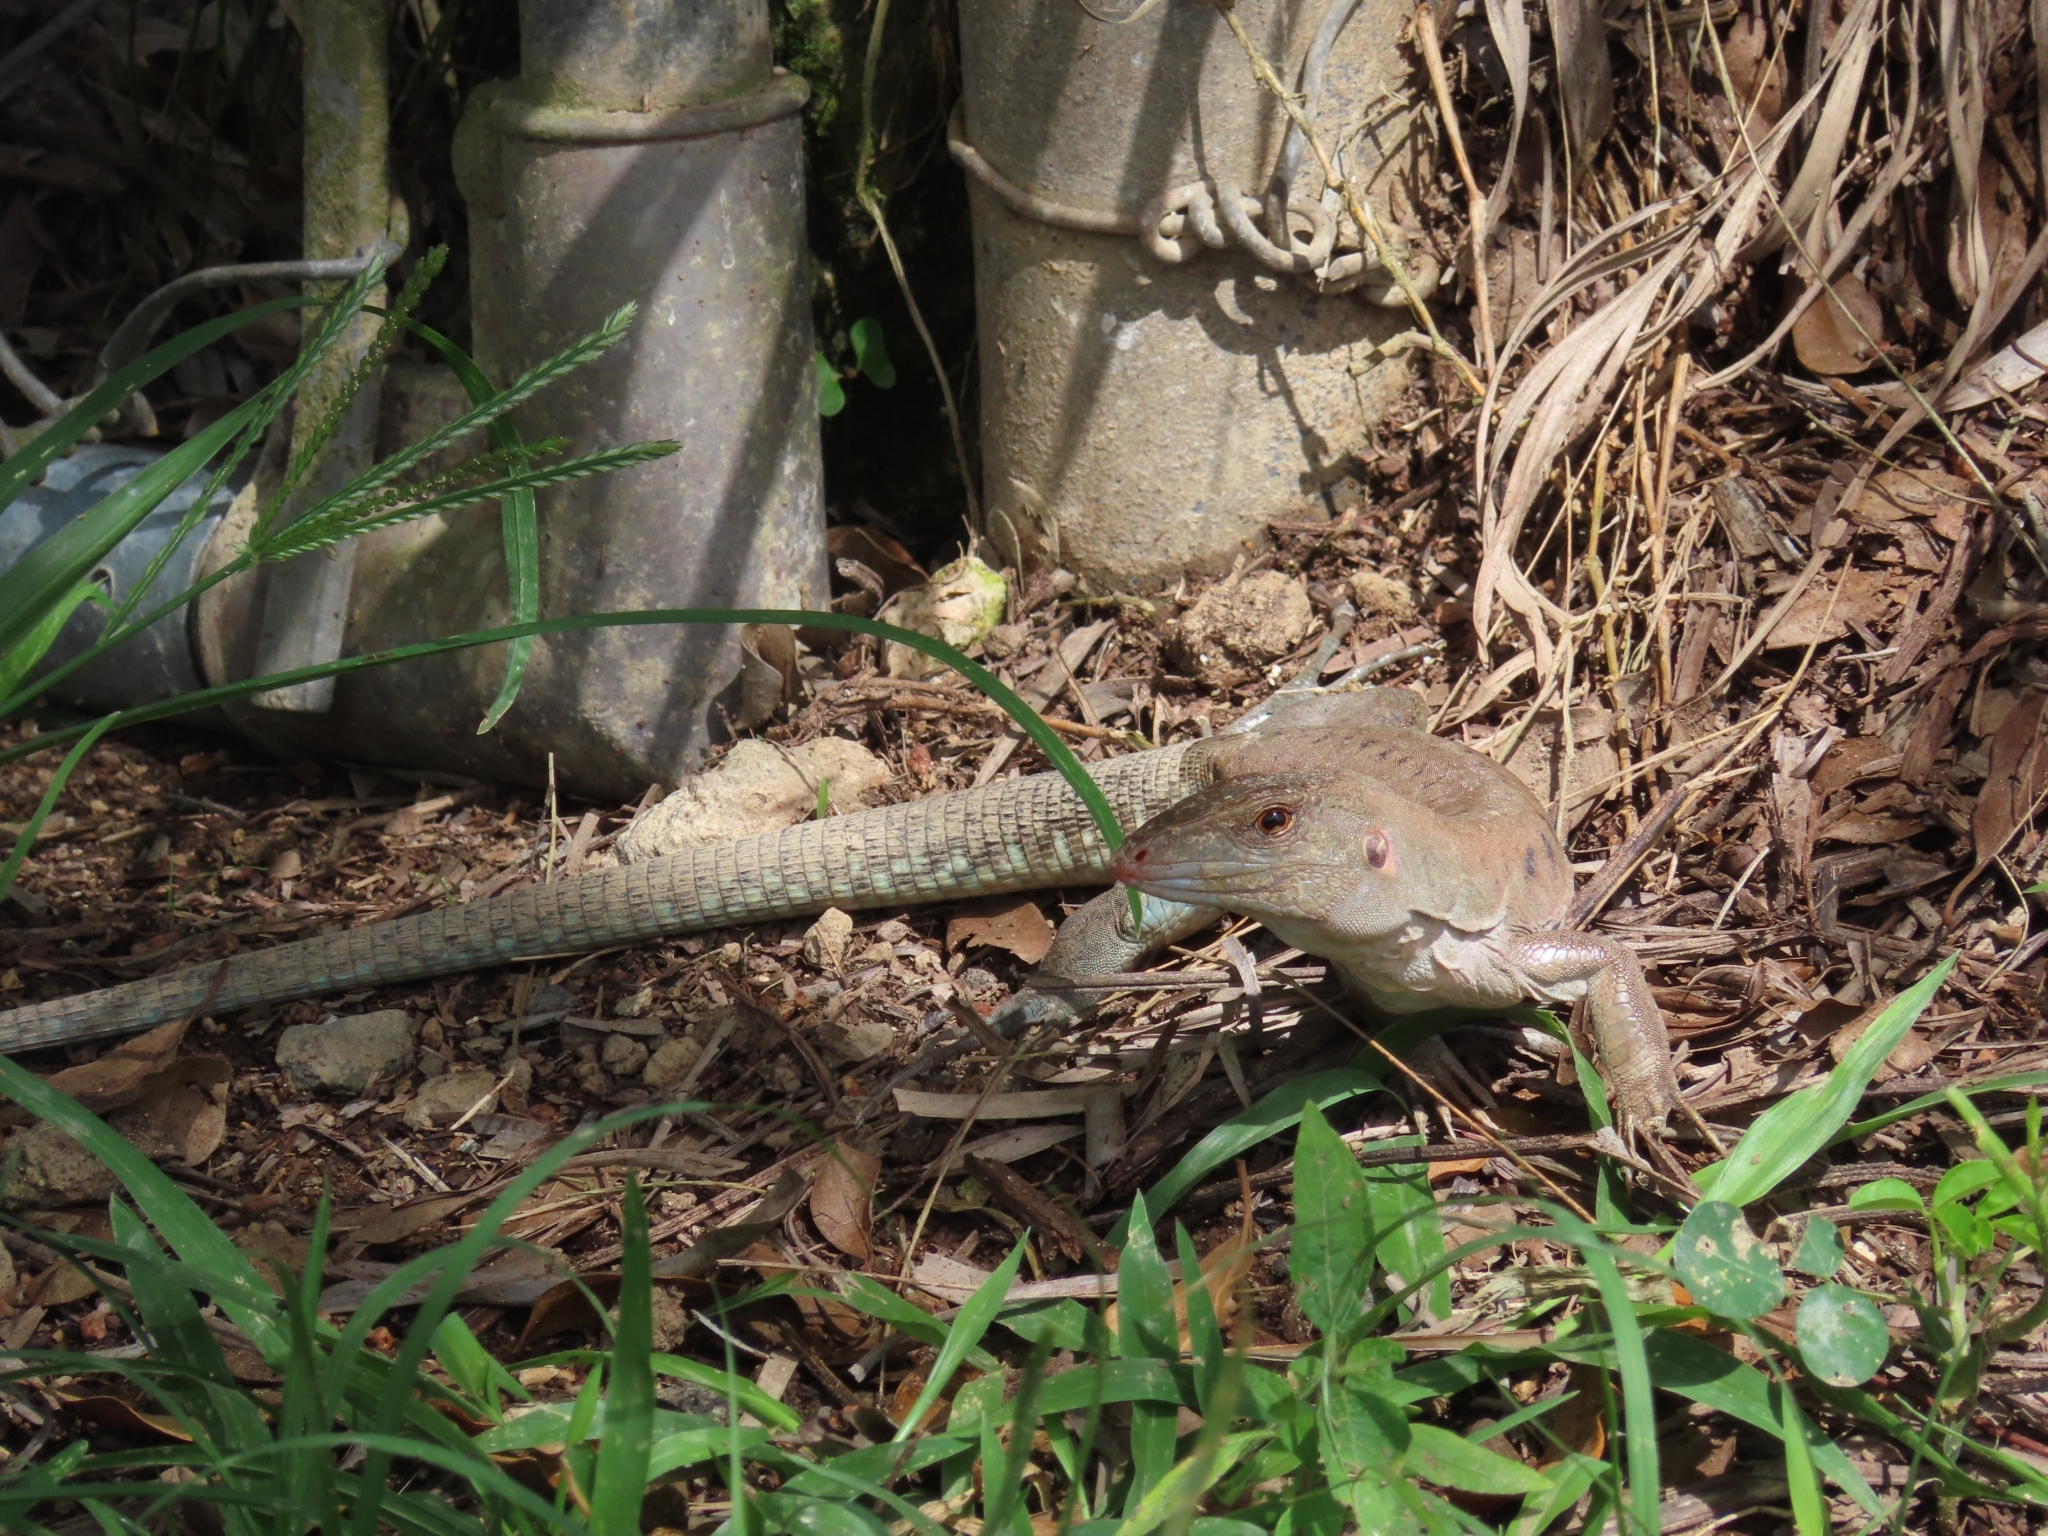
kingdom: Animalia
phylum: Chordata
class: Squamata
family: Teiidae
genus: Pholidoscelis
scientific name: Pholidoscelis exsul
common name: Common puerto rican ameiva
